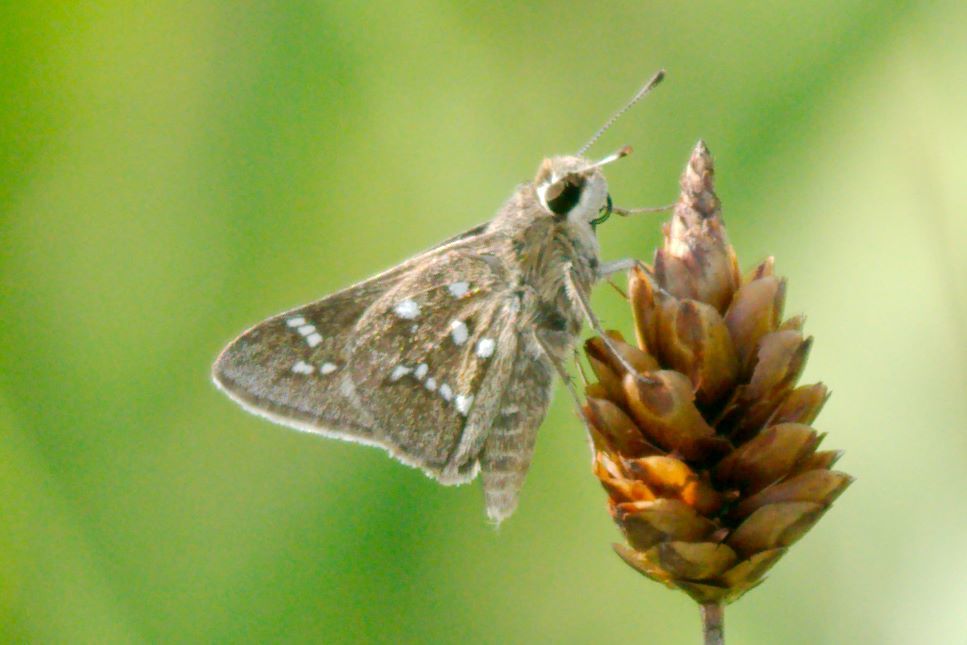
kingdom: Animalia
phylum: Arthropoda
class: Insecta
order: Lepidoptera
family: Hesperiidae
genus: Atrytonopsis
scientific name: Atrytonopsis loammi
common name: Loammi skipper
